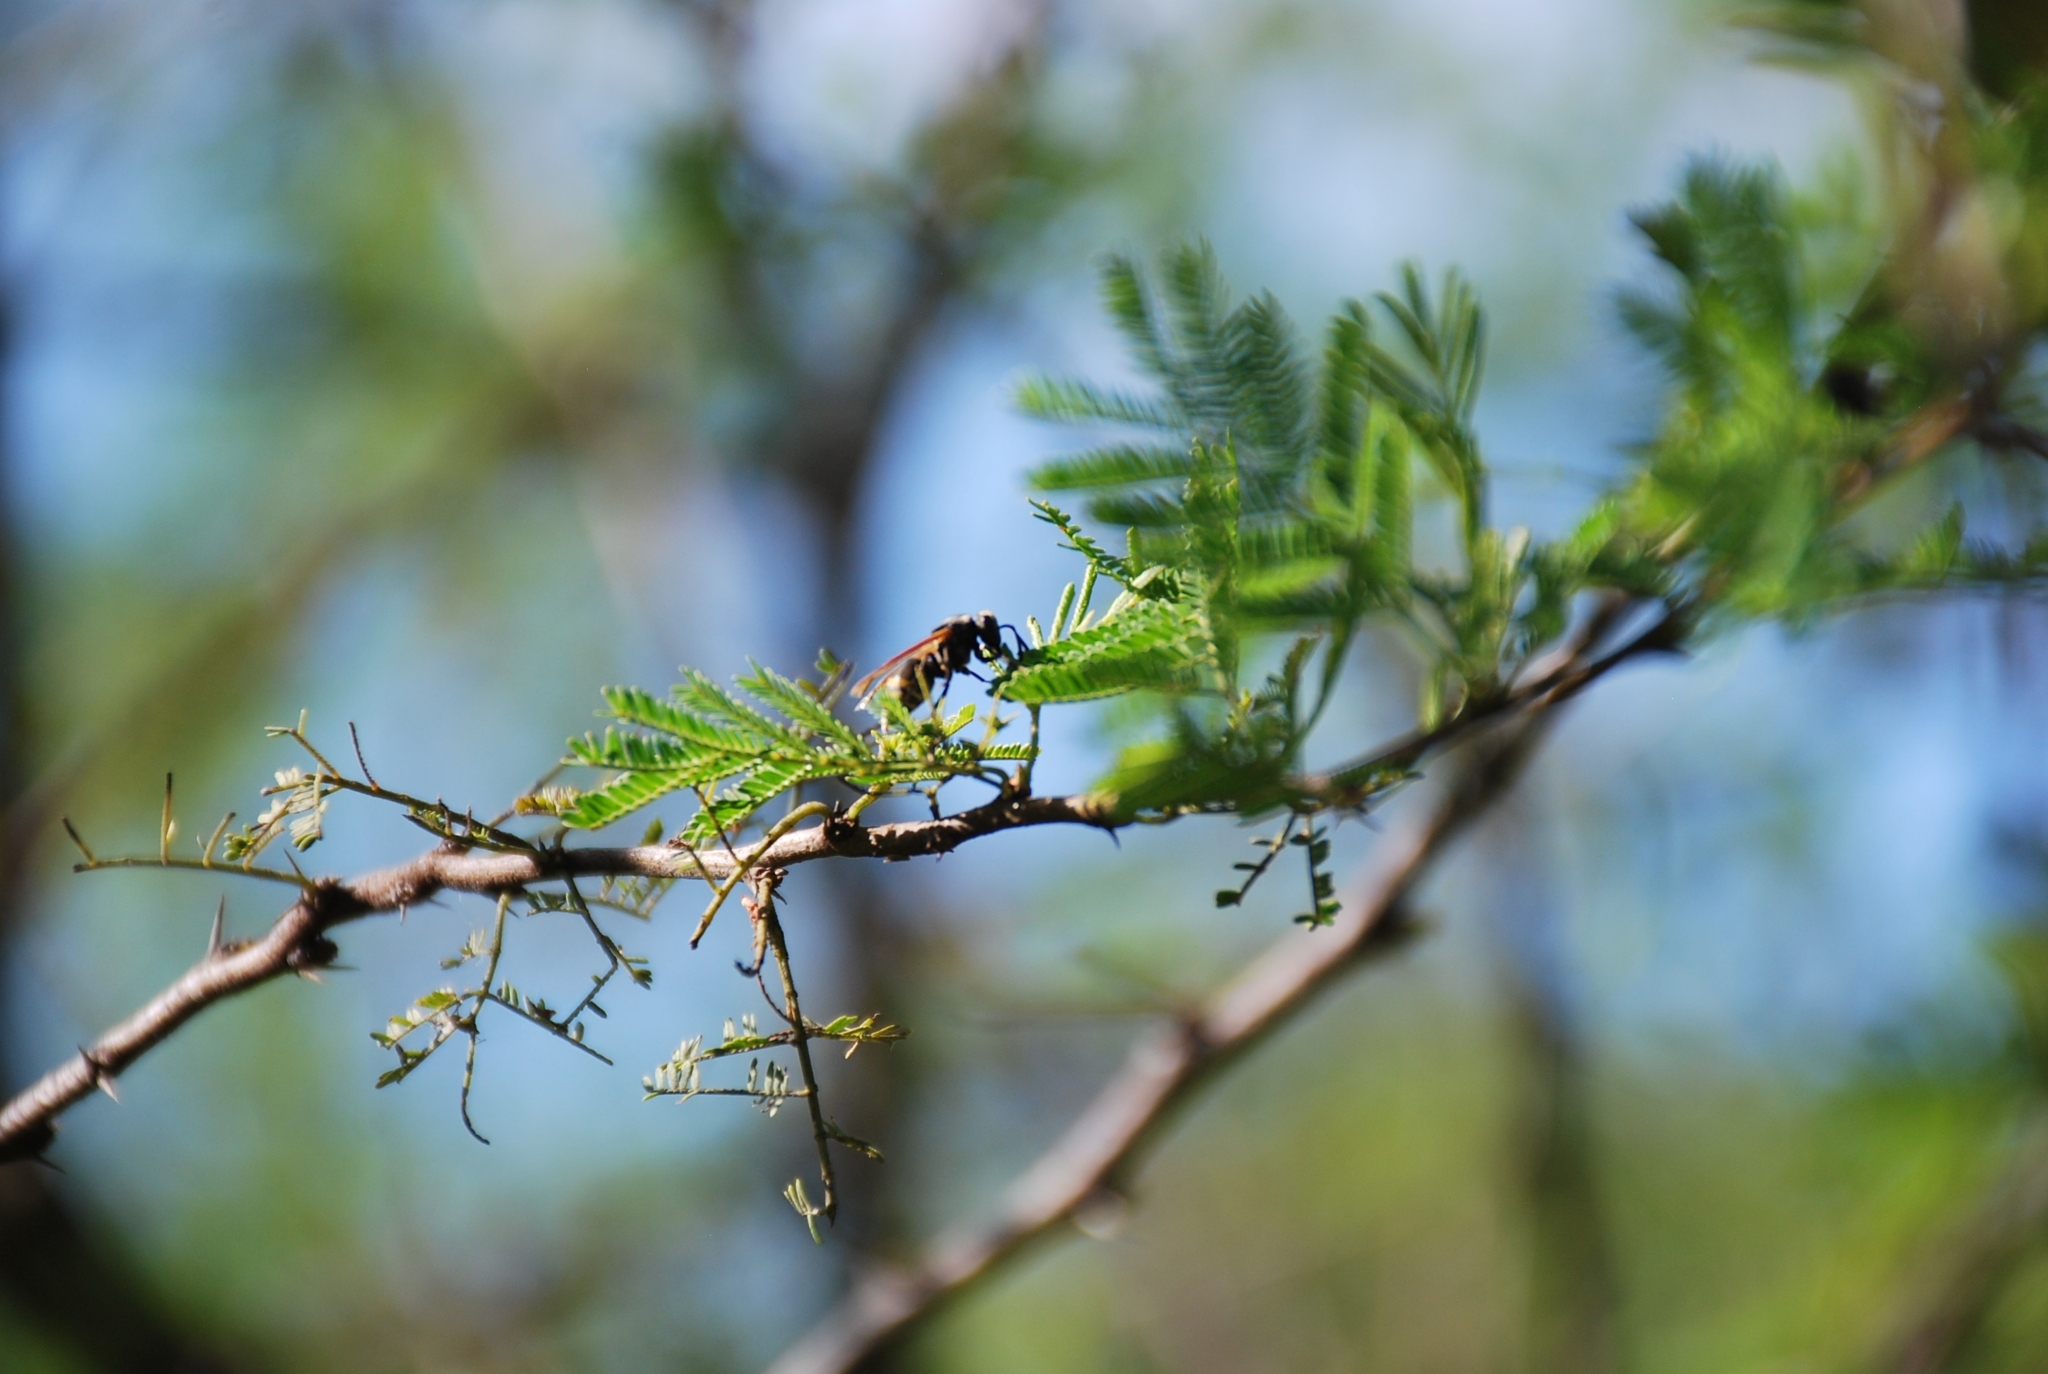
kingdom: Animalia
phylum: Arthropoda
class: Insecta
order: Hymenoptera
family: Vespidae
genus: Brachygastra
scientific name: Brachygastra lecheguana
